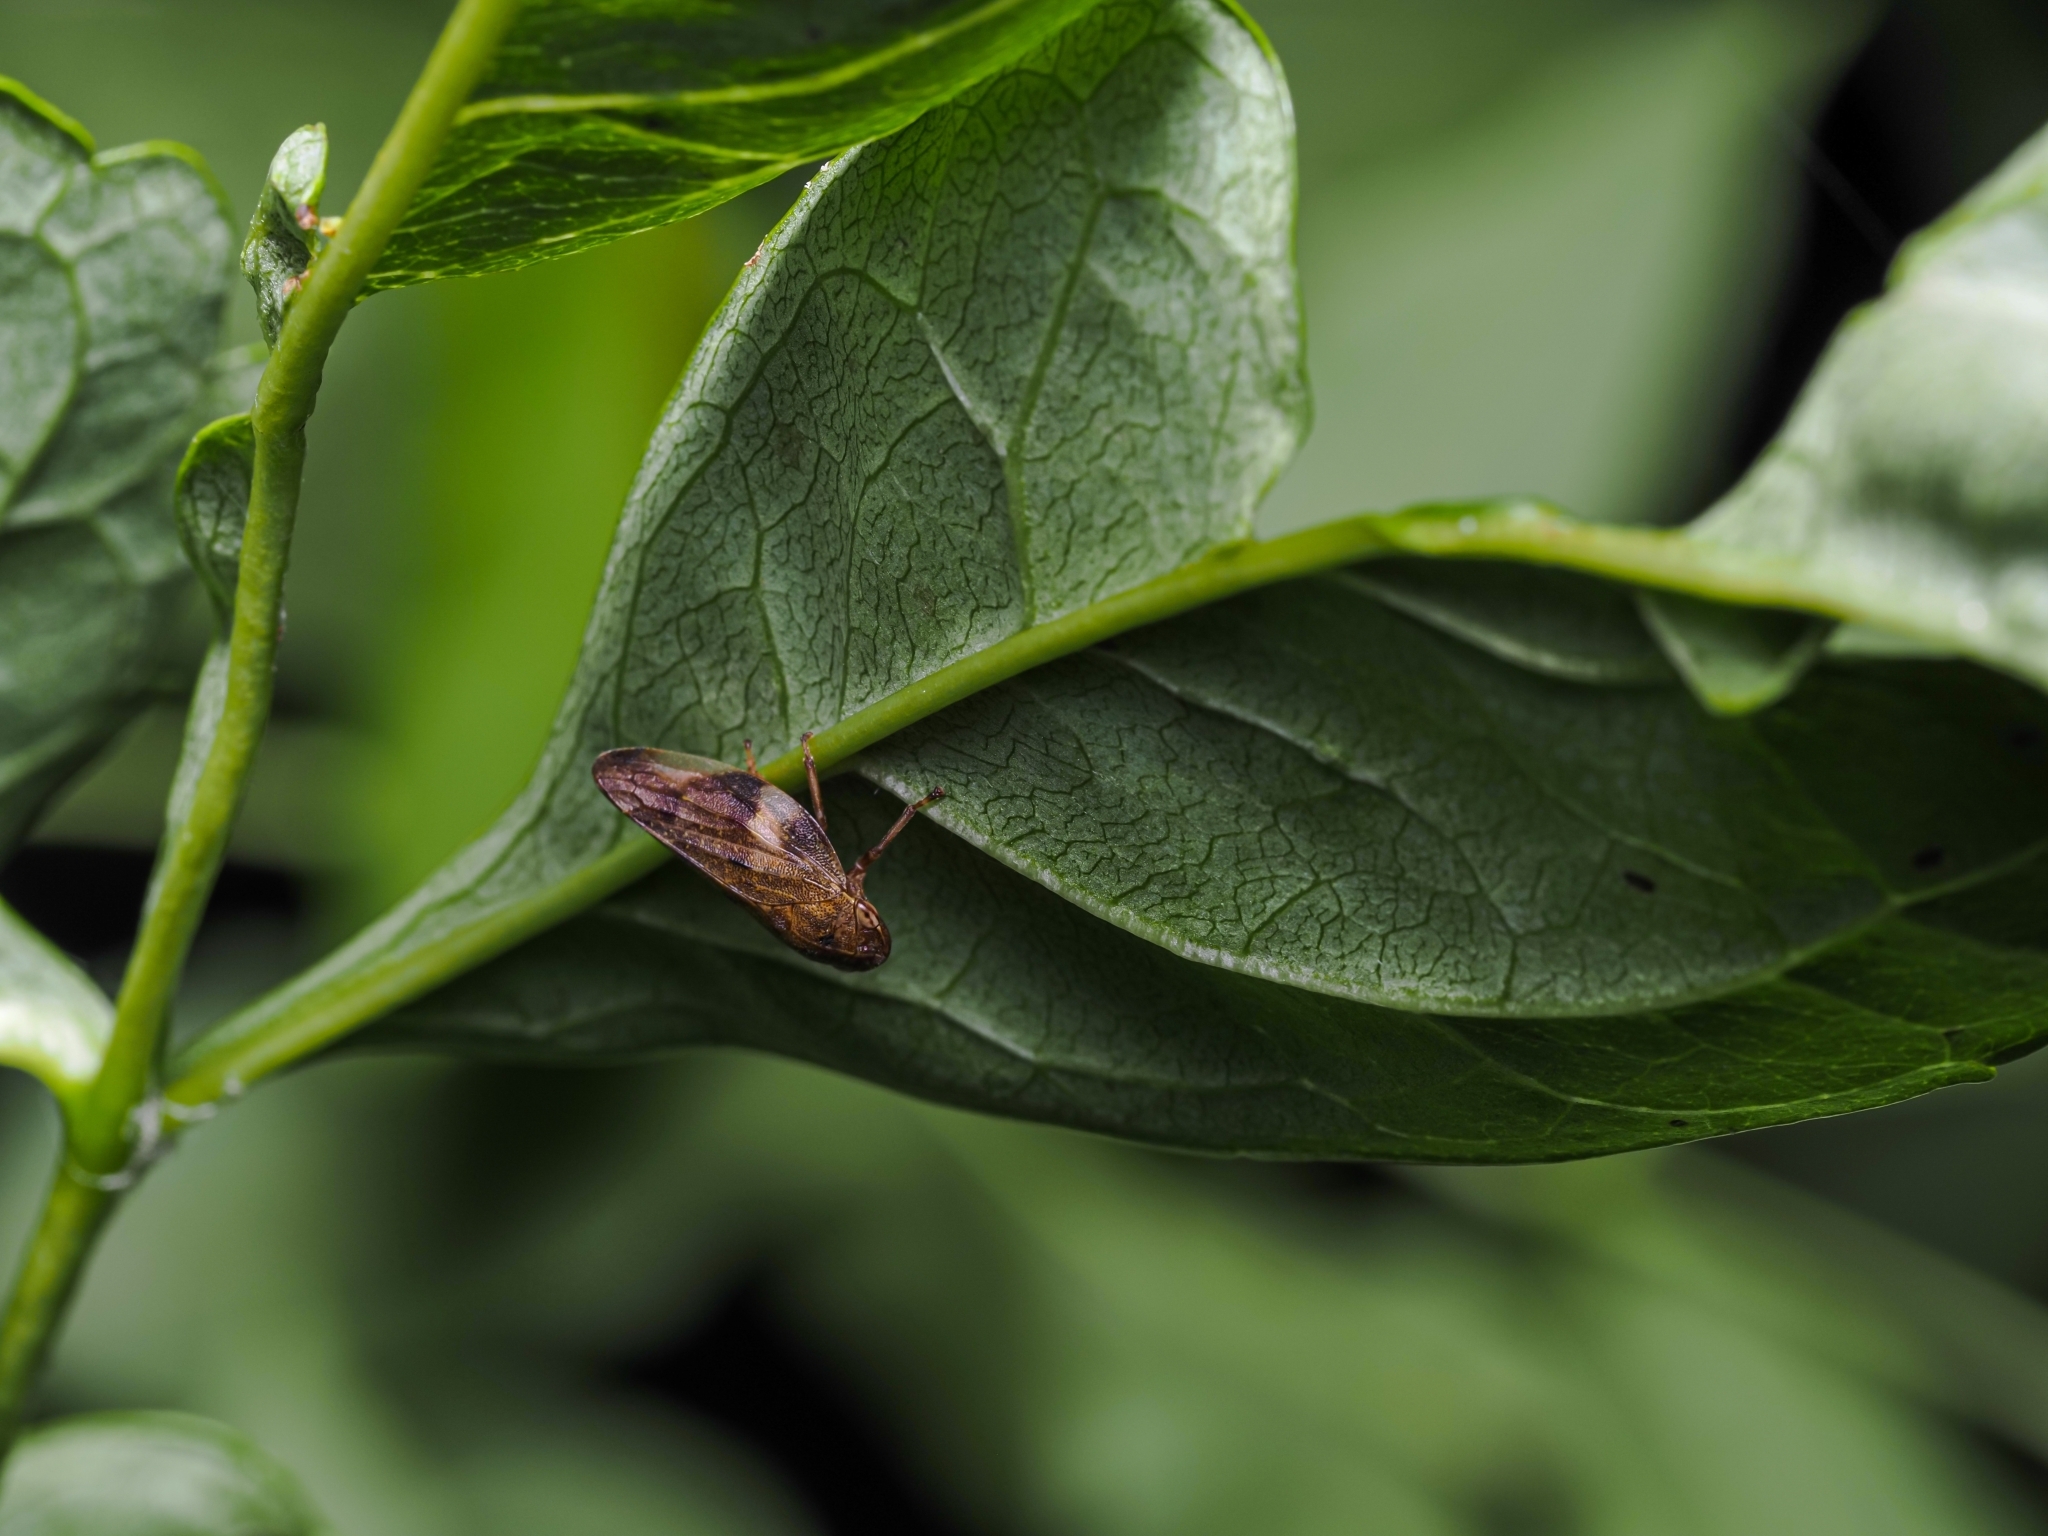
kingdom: Animalia
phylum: Arthropoda
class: Insecta
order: Hemiptera
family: Aphrophoridae
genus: Aphrophora
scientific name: Aphrophora alni
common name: European alder spittlebug
